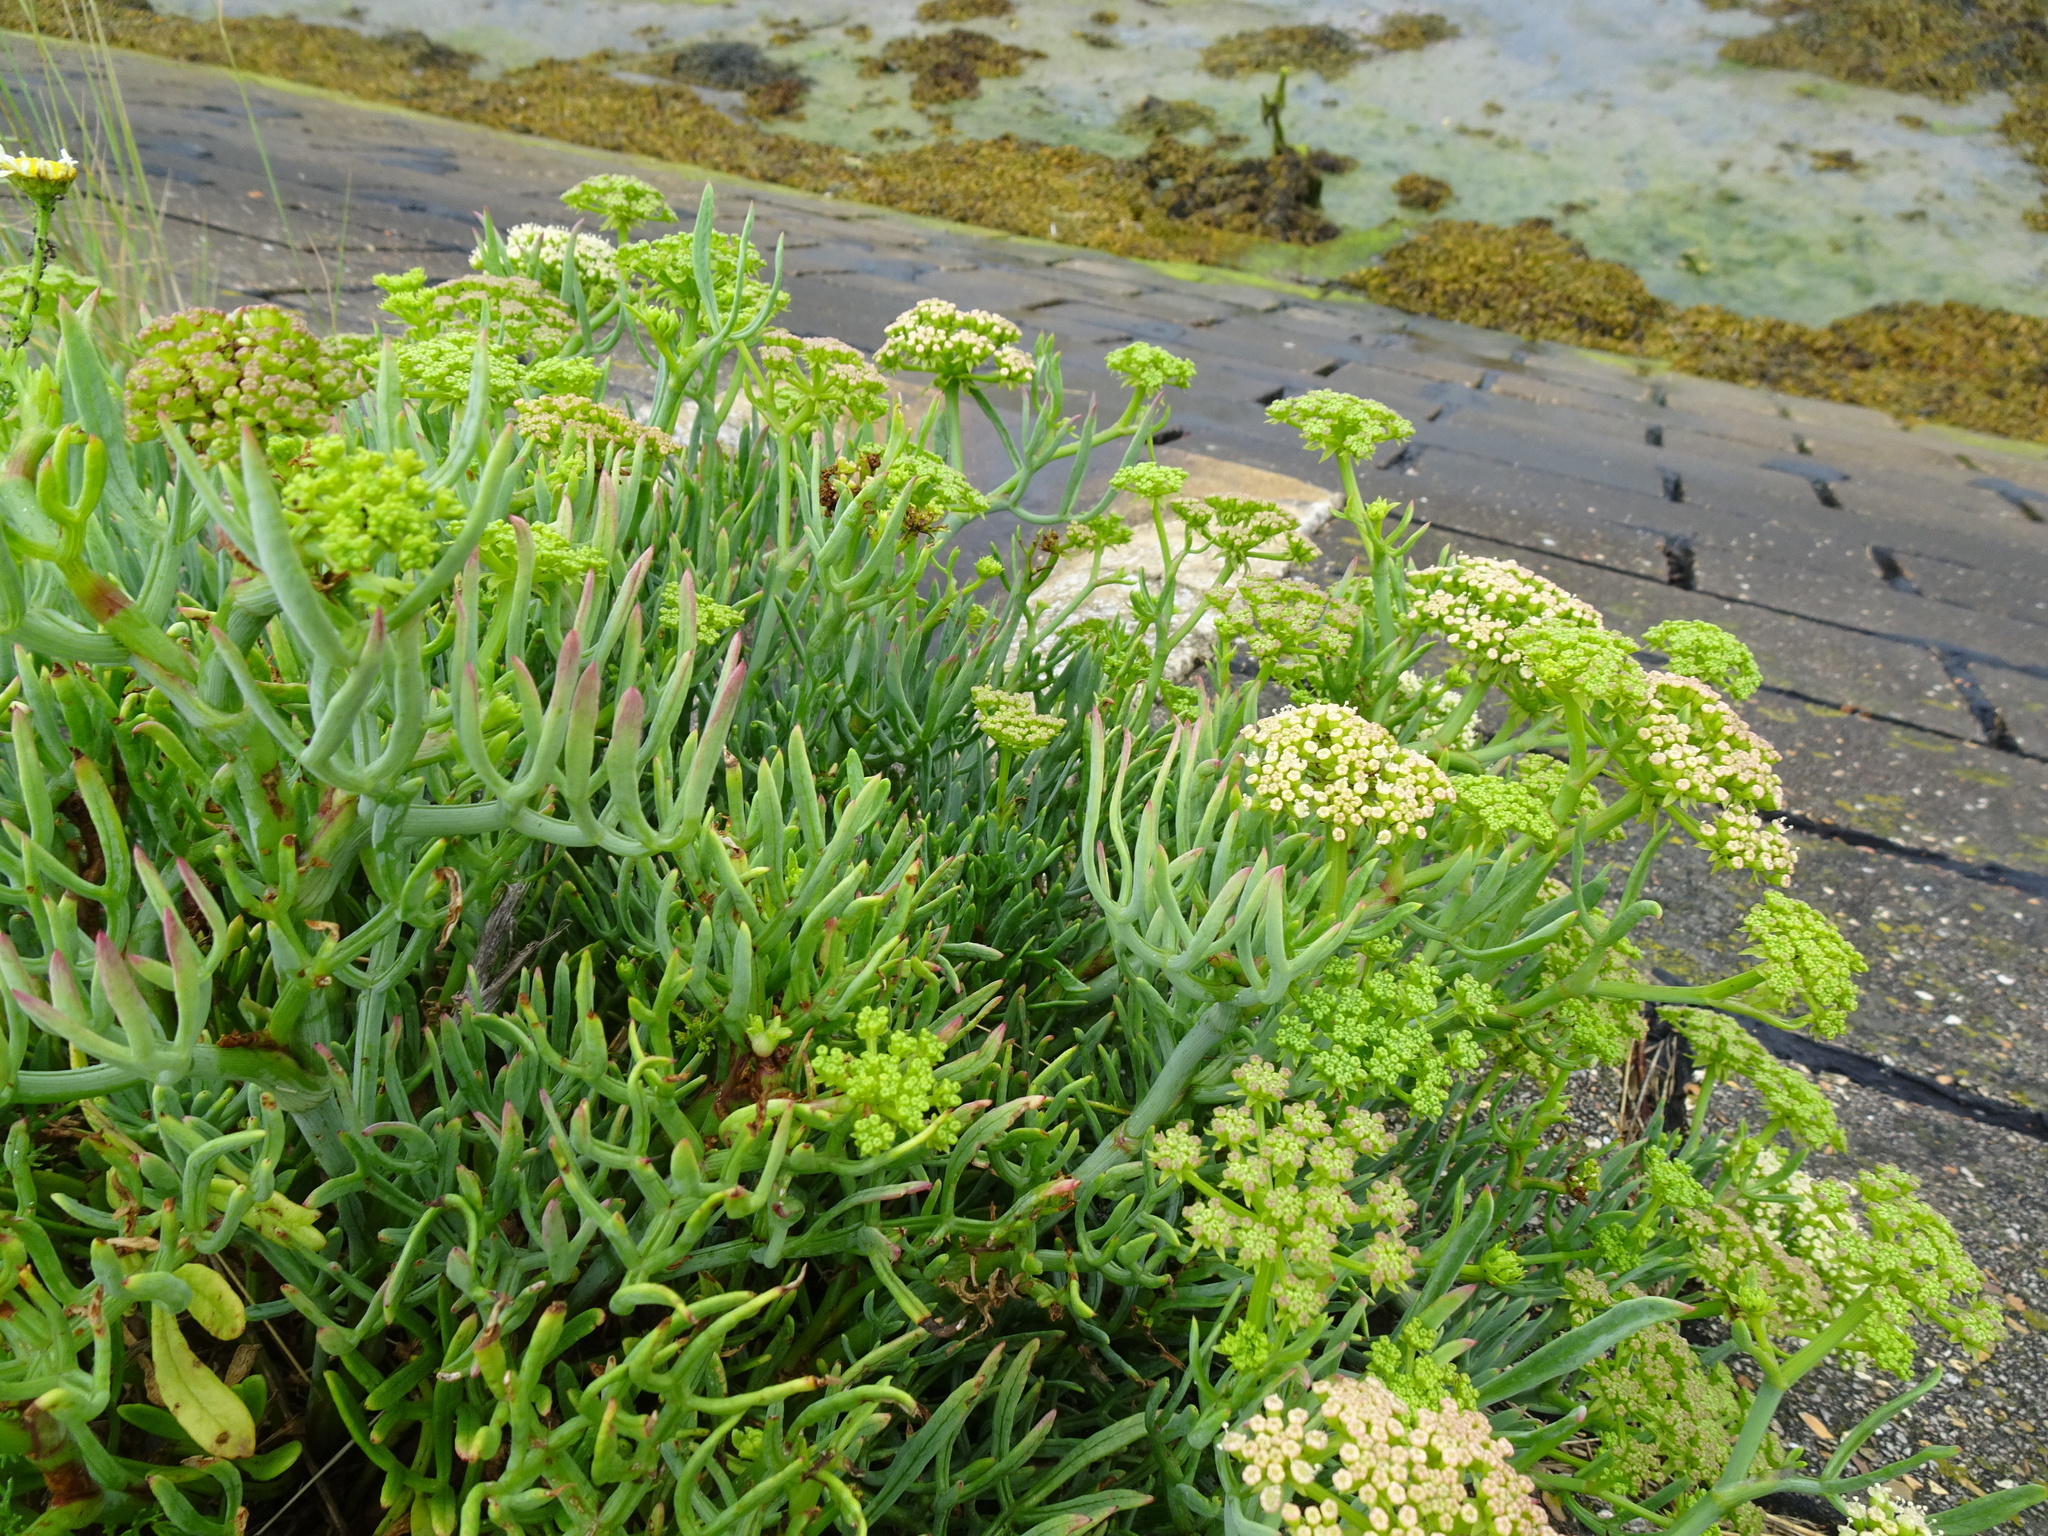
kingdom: Plantae
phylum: Tracheophyta
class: Magnoliopsida
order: Apiales
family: Apiaceae
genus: Crithmum
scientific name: Crithmum maritimum
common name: Rock samphire
